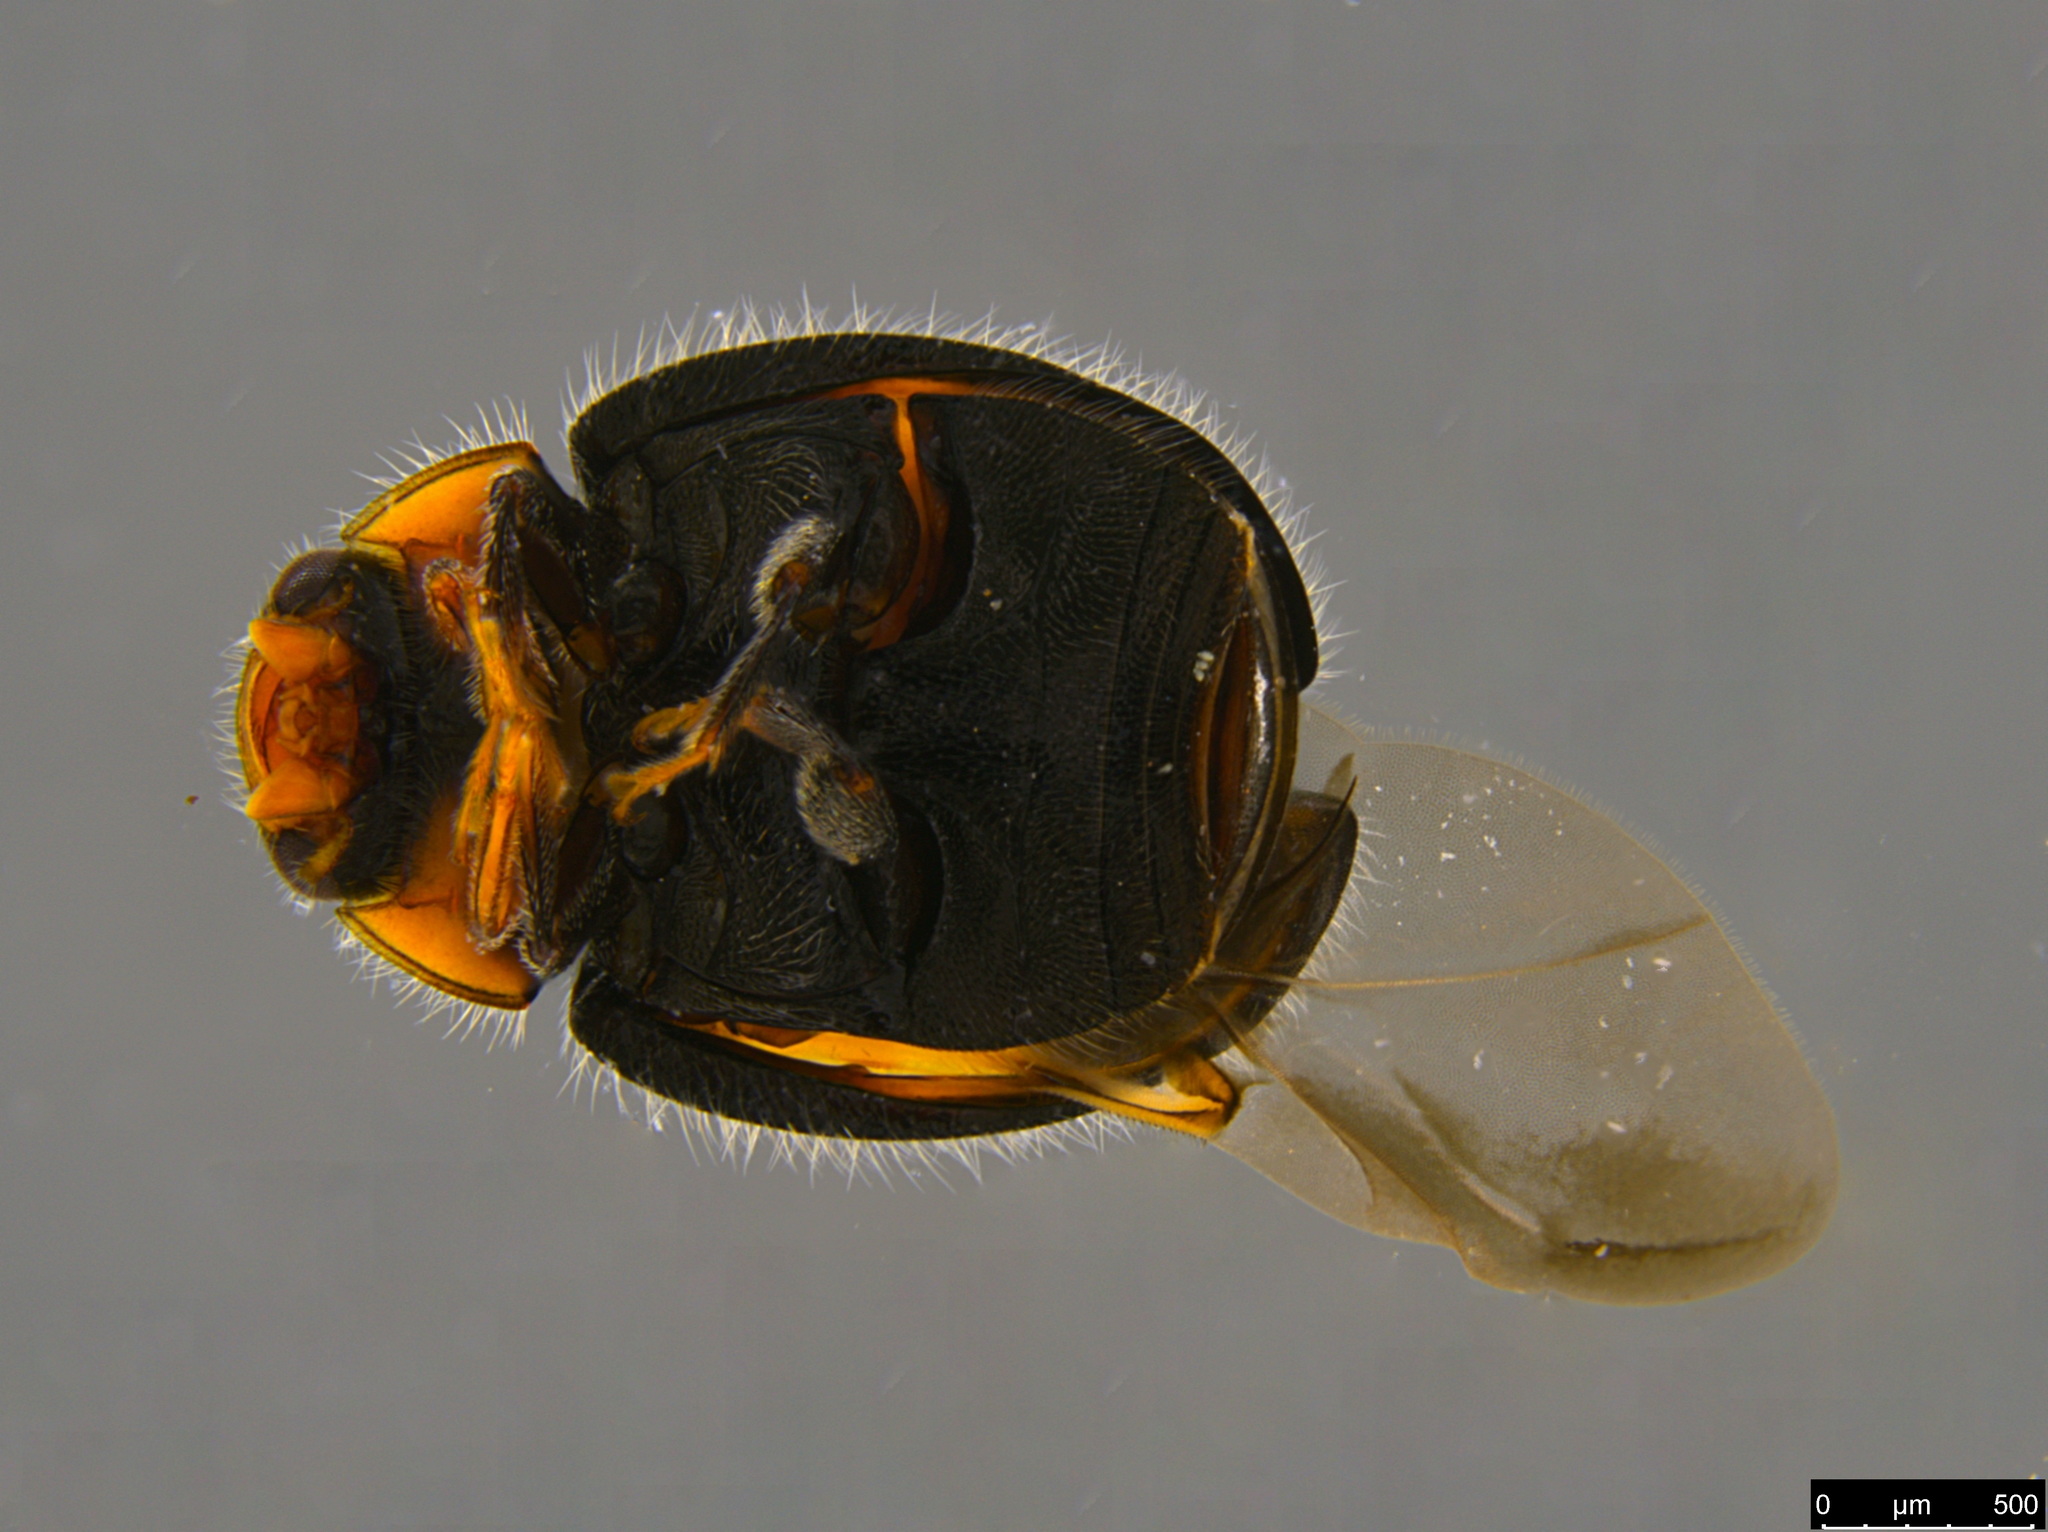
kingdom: Animalia
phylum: Arthropoda
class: Insecta
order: Coleoptera
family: Coccinellidae
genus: Scymnus
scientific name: Scymnus notescens
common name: Minute two-spotted ladybird beetle
